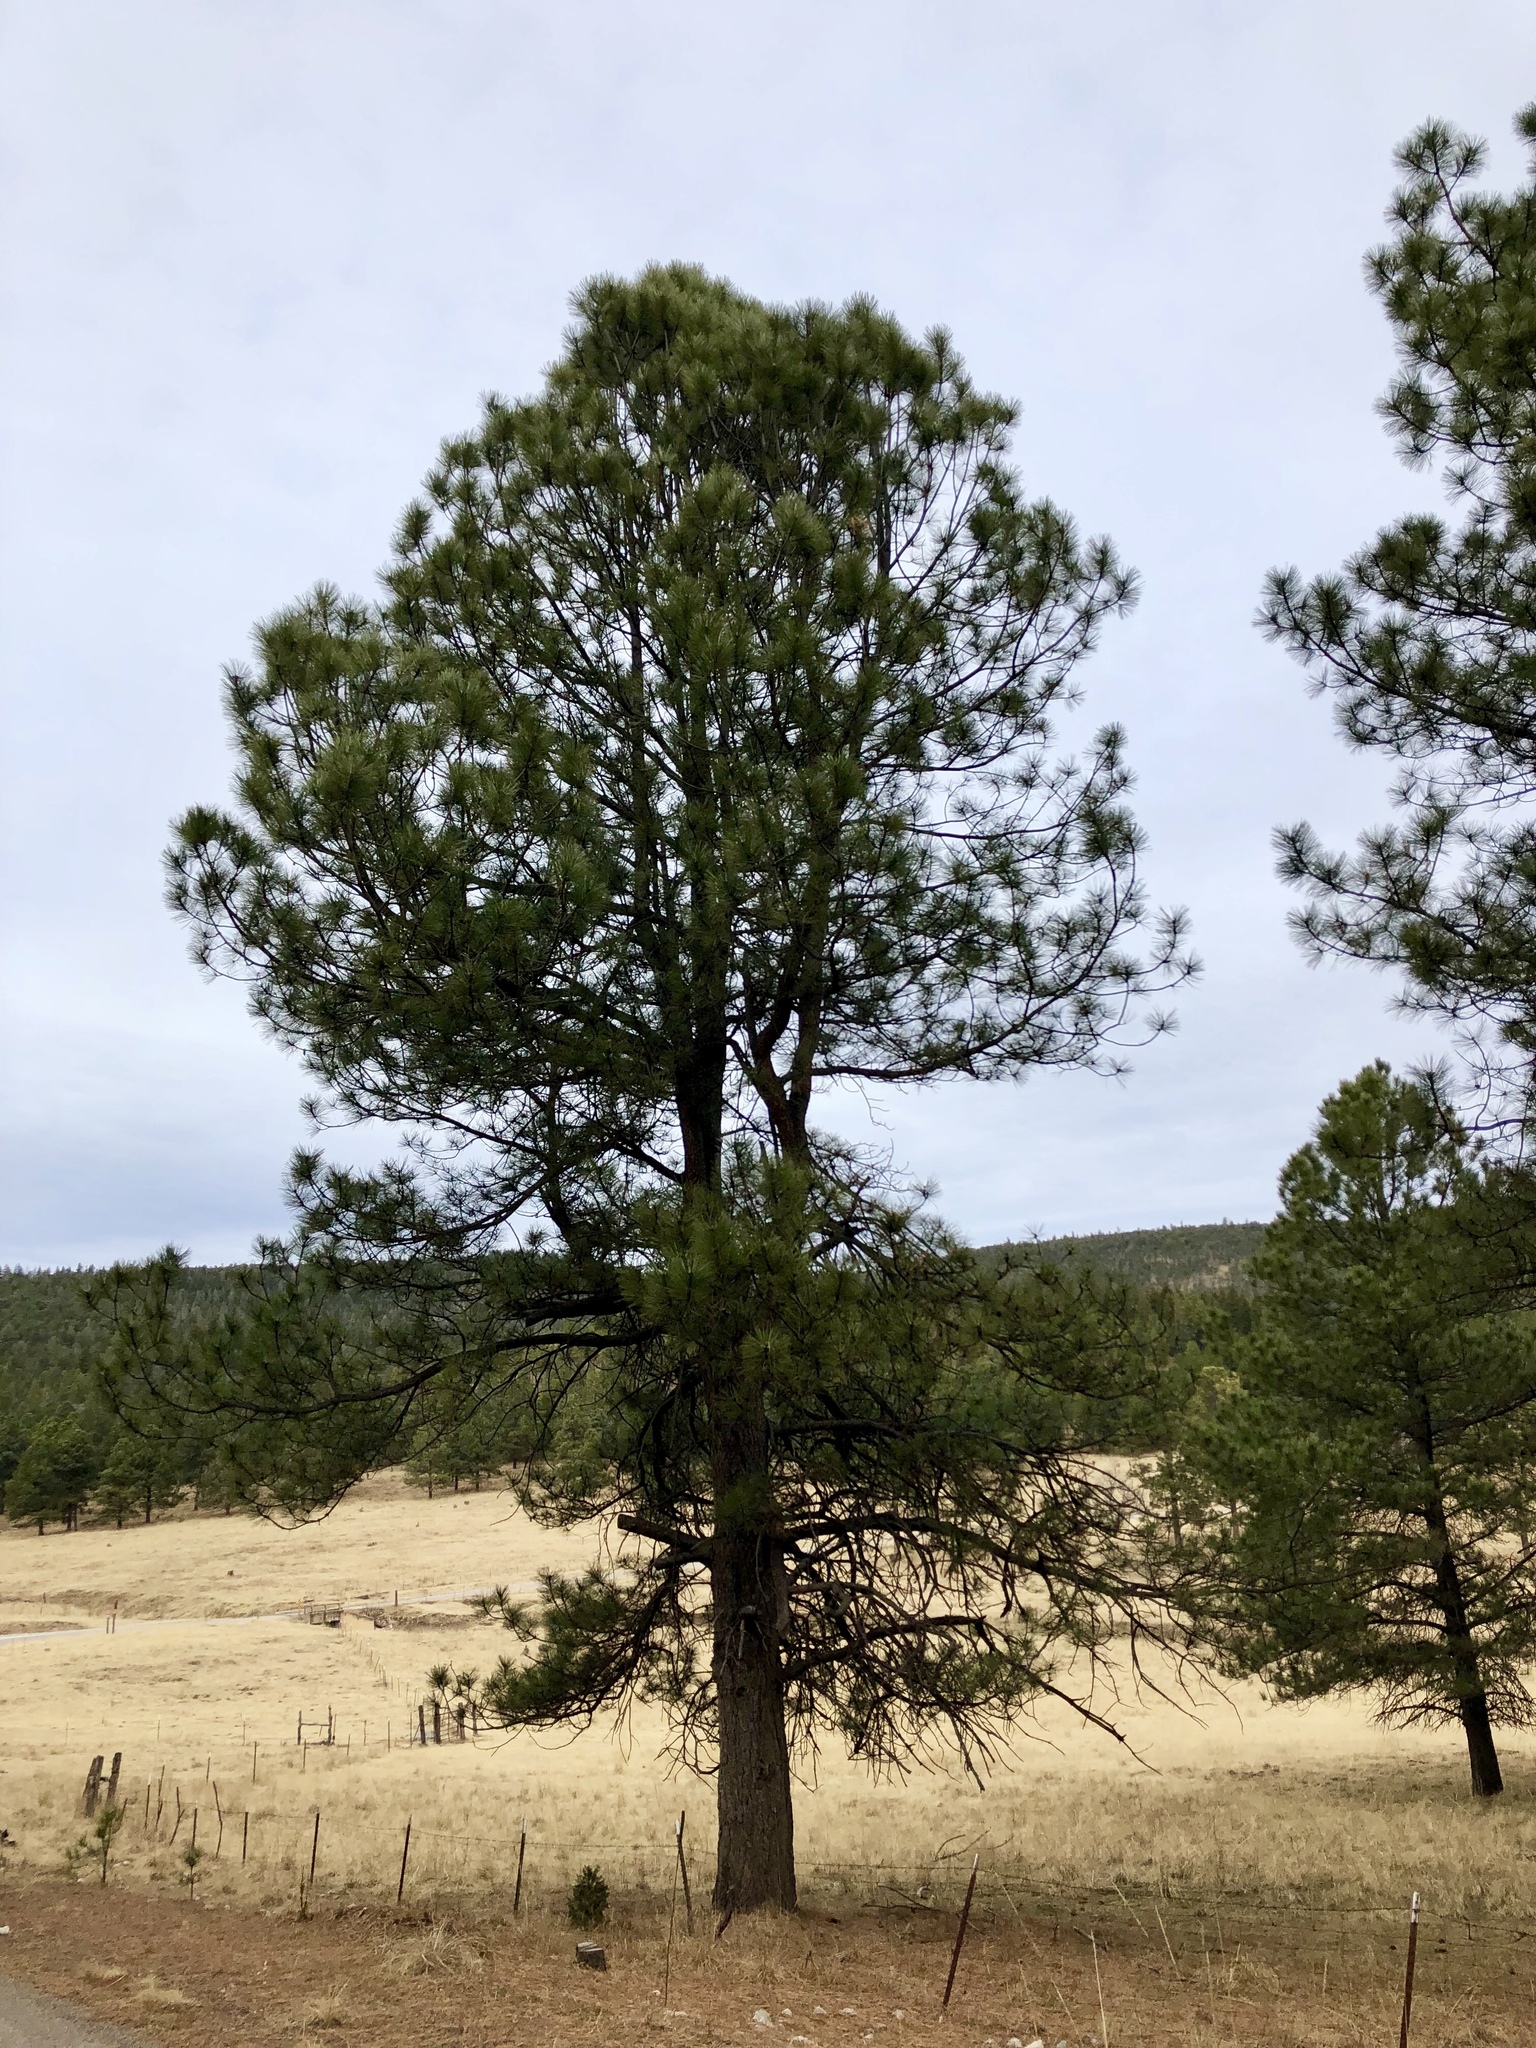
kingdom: Plantae
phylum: Tracheophyta
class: Pinopsida
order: Pinales
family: Pinaceae
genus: Pinus
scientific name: Pinus ponderosa
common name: Western yellow-pine
